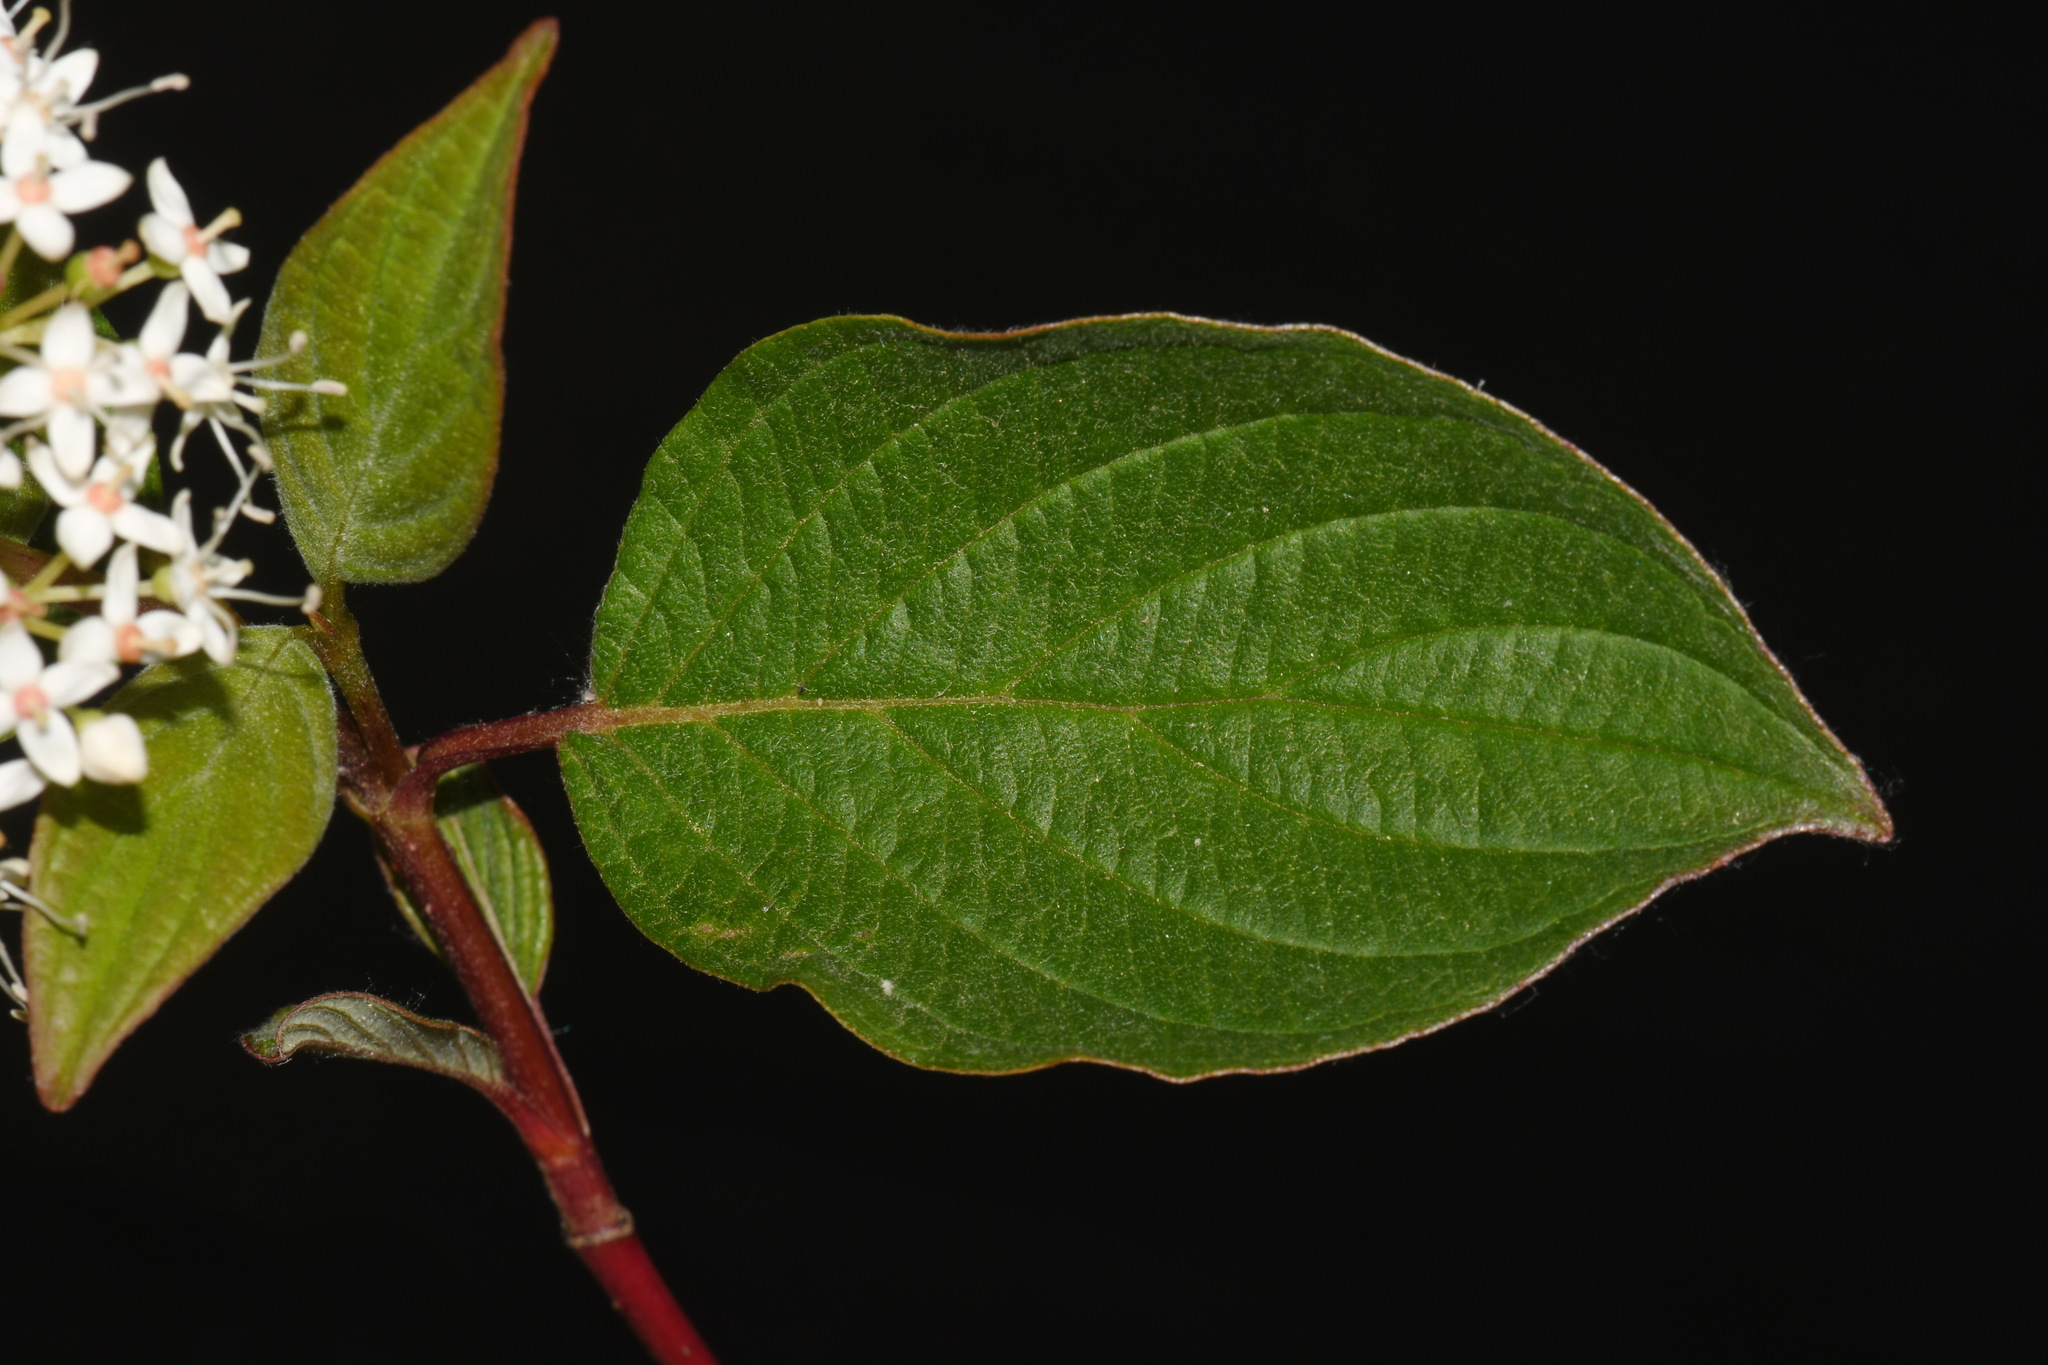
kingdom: Plantae
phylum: Tracheophyta
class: Magnoliopsida
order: Cornales
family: Cornaceae
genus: Cornus
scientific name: Cornus sericea
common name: Red-osier dogwood
